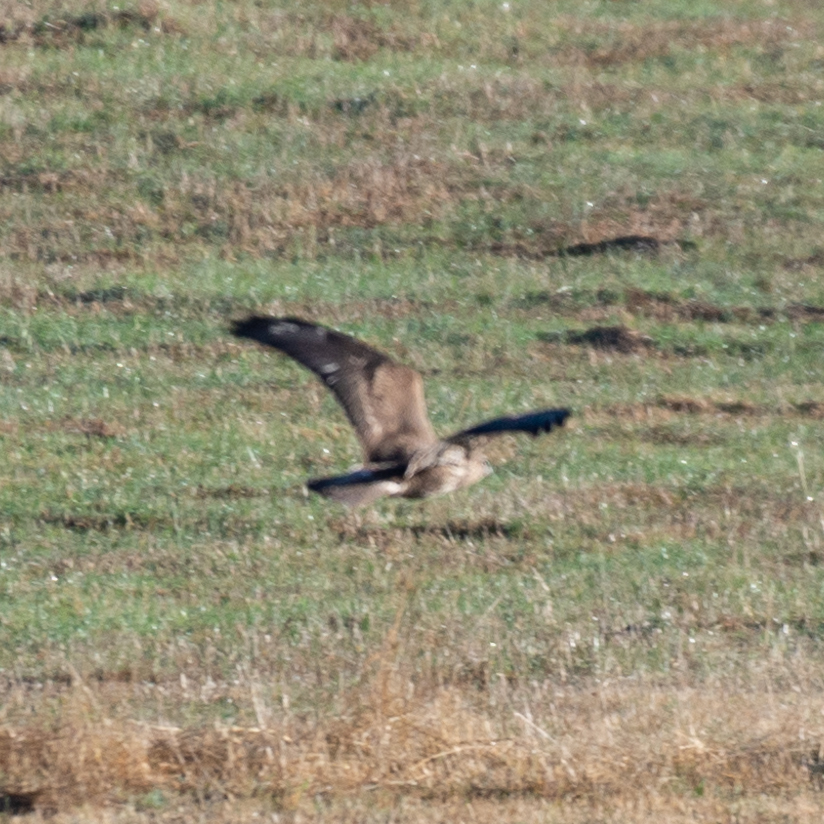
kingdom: Animalia
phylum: Chordata
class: Aves
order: Accipitriformes
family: Accipitridae
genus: Buteo
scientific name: Buteo buteo
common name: Common buzzard
